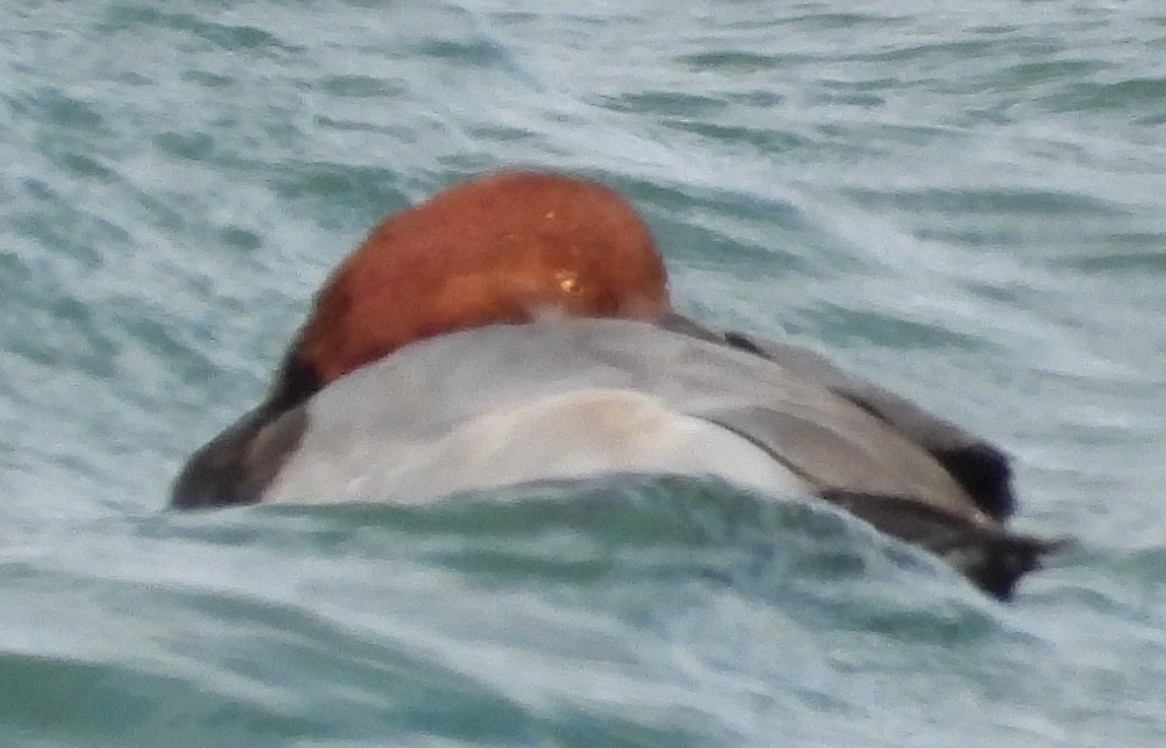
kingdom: Animalia
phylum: Chordata
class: Aves
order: Anseriformes
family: Anatidae
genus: Aythya
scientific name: Aythya americana
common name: Redhead
